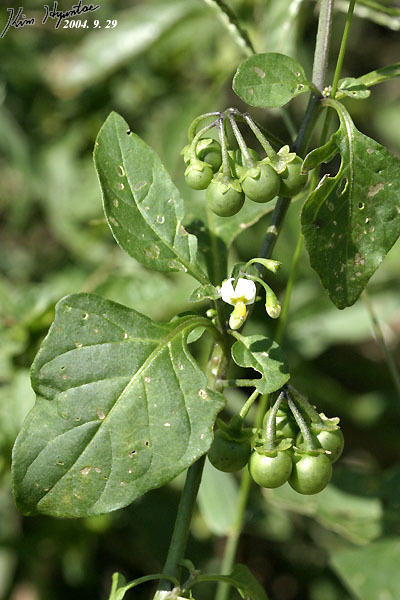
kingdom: Plantae
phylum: Tracheophyta
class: Magnoliopsida
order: Solanales
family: Solanaceae
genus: Solanum
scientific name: Solanum nigrum
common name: Black nightshade
